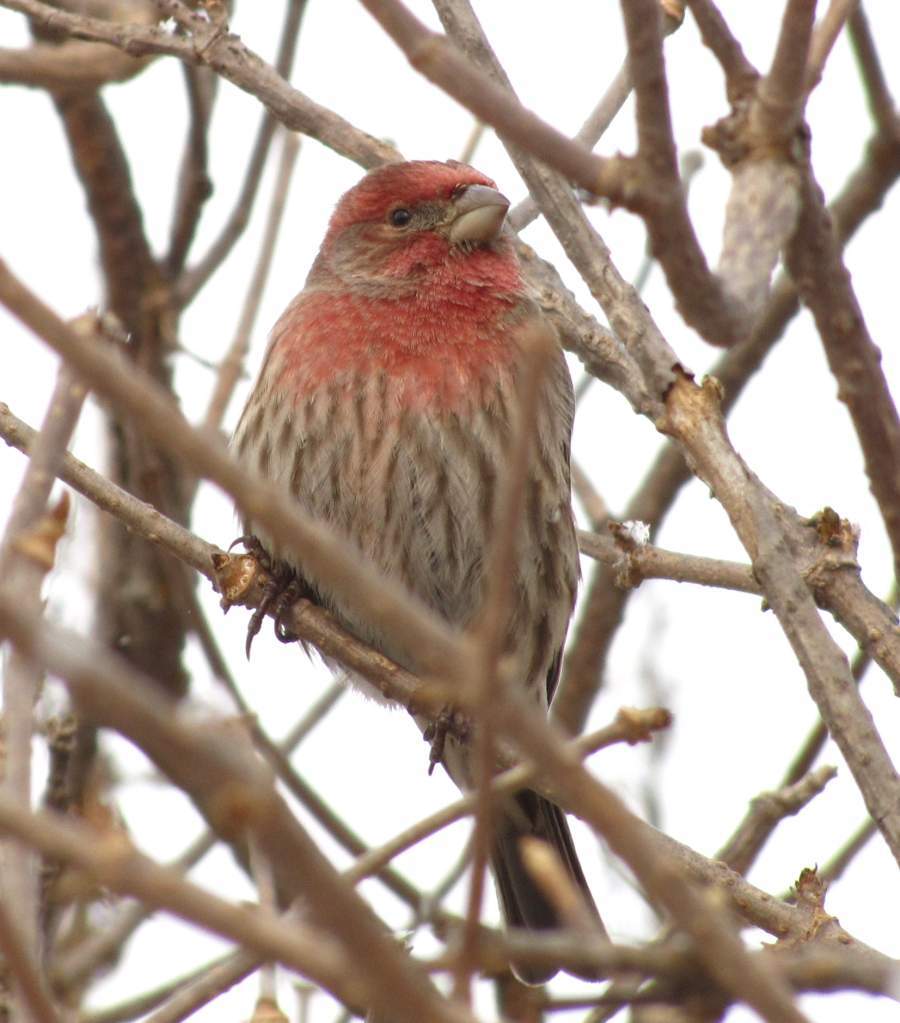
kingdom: Animalia
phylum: Chordata
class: Aves
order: Passeriformes
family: Fringillidae
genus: Haemorhous
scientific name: Haemorhous mexicanus
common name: House finch
